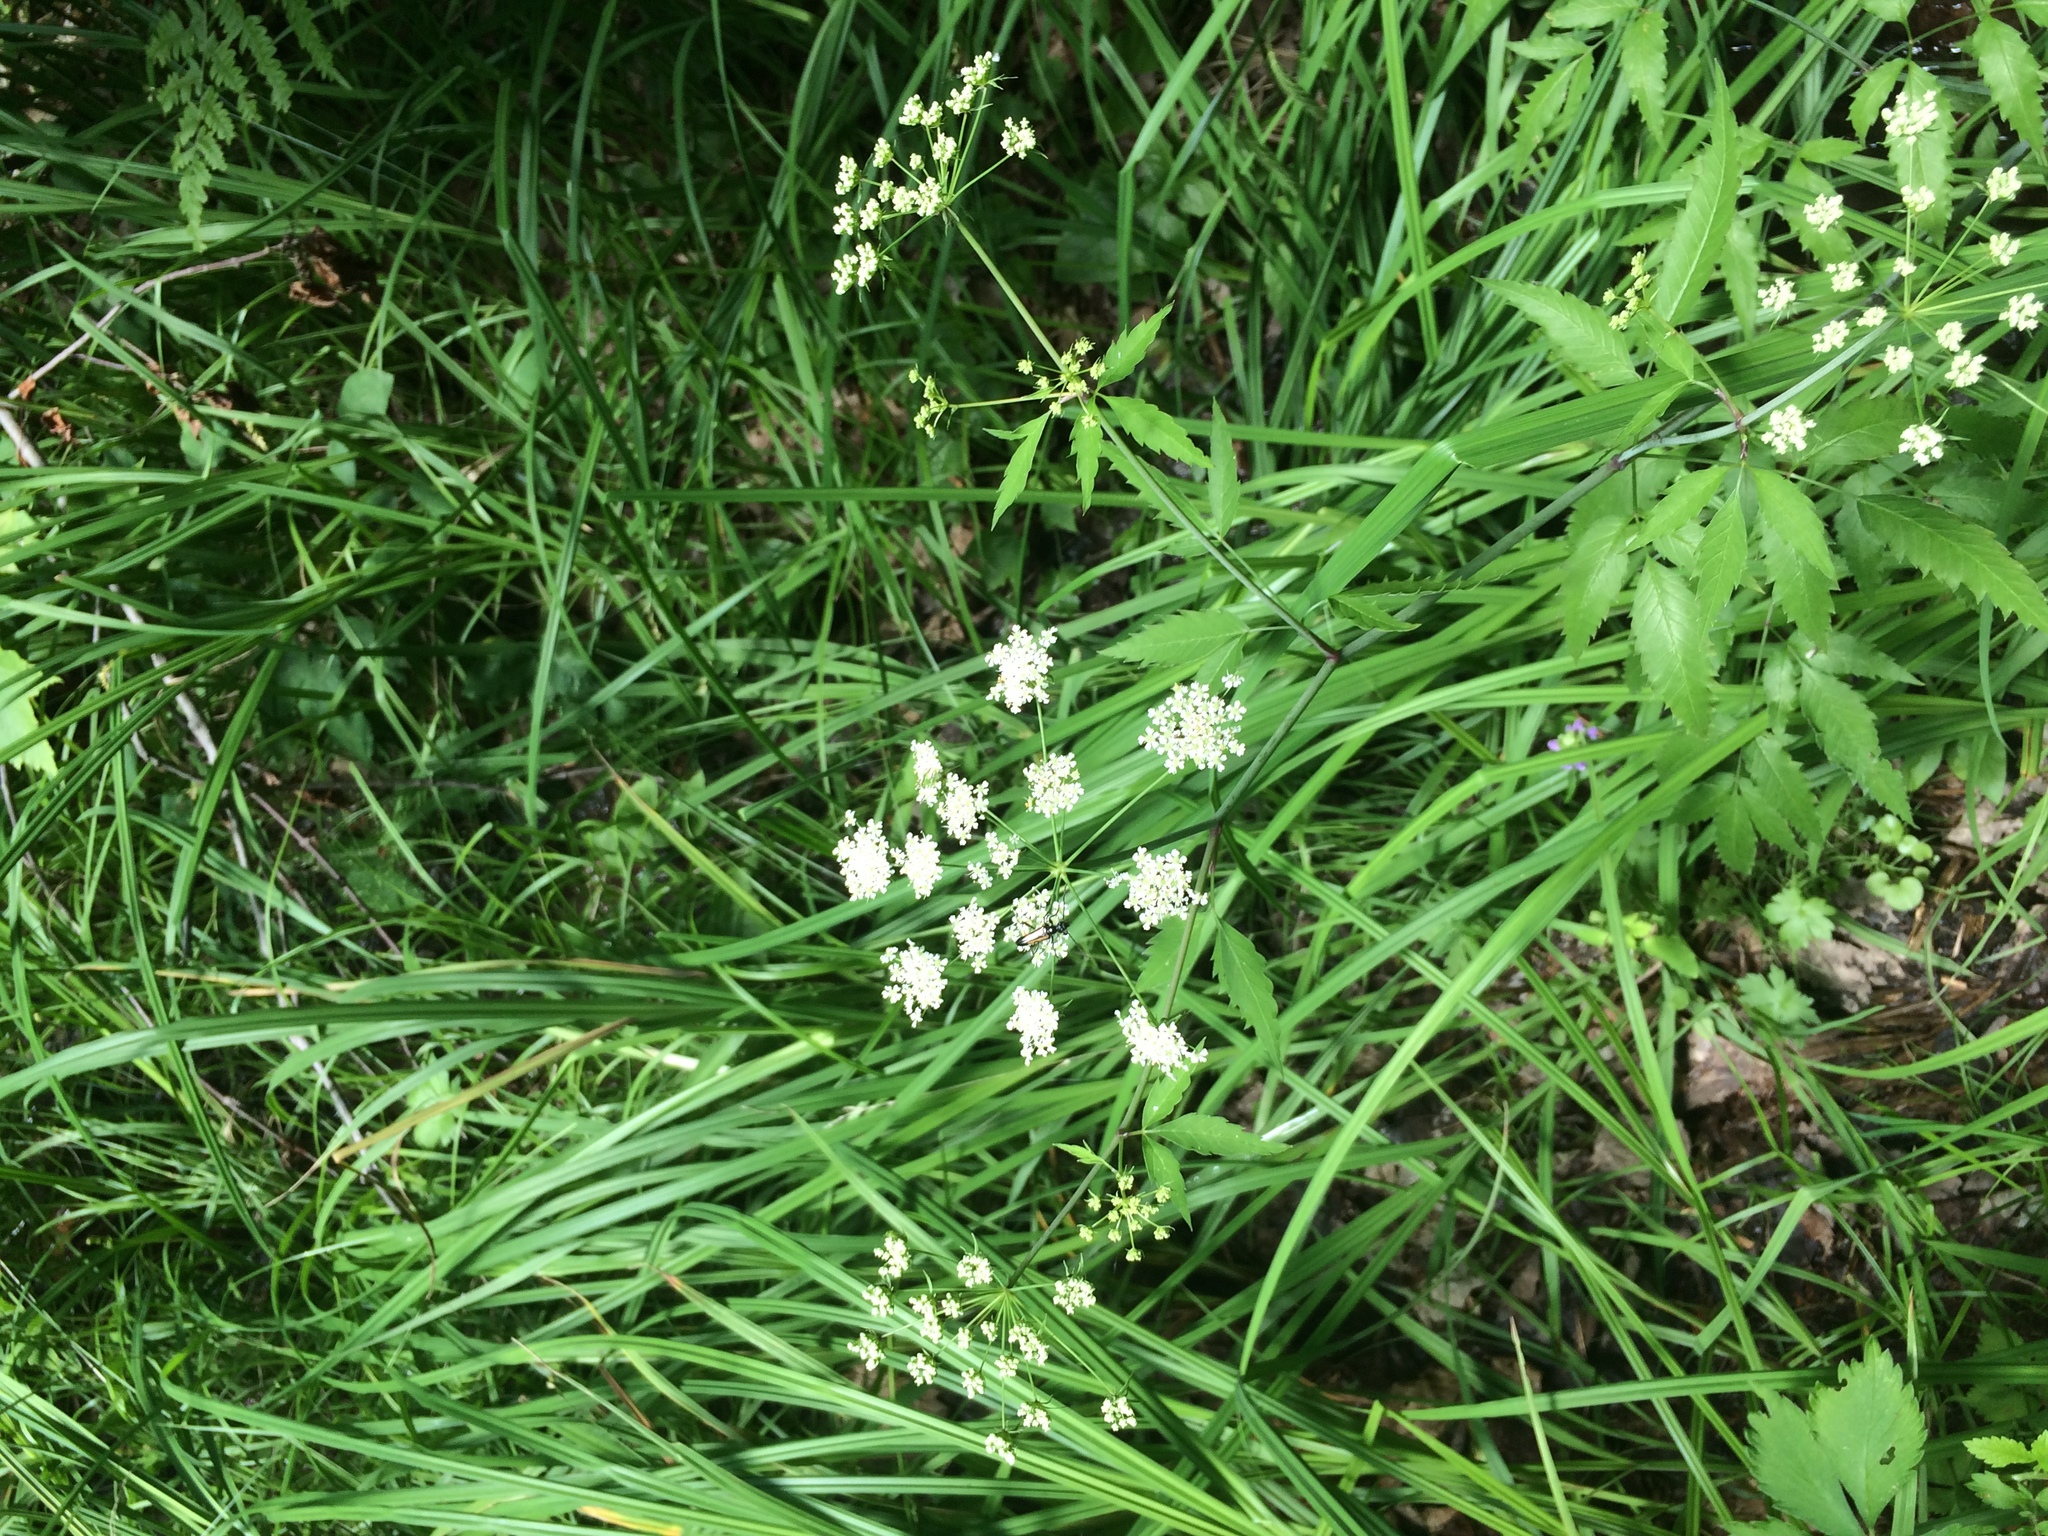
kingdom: Plantae
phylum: Tracheophyta
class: Magnoliopsida
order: Apiales
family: Apiaceae
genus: Cicuta
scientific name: Cicuta maculata
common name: Spotted cowbane
